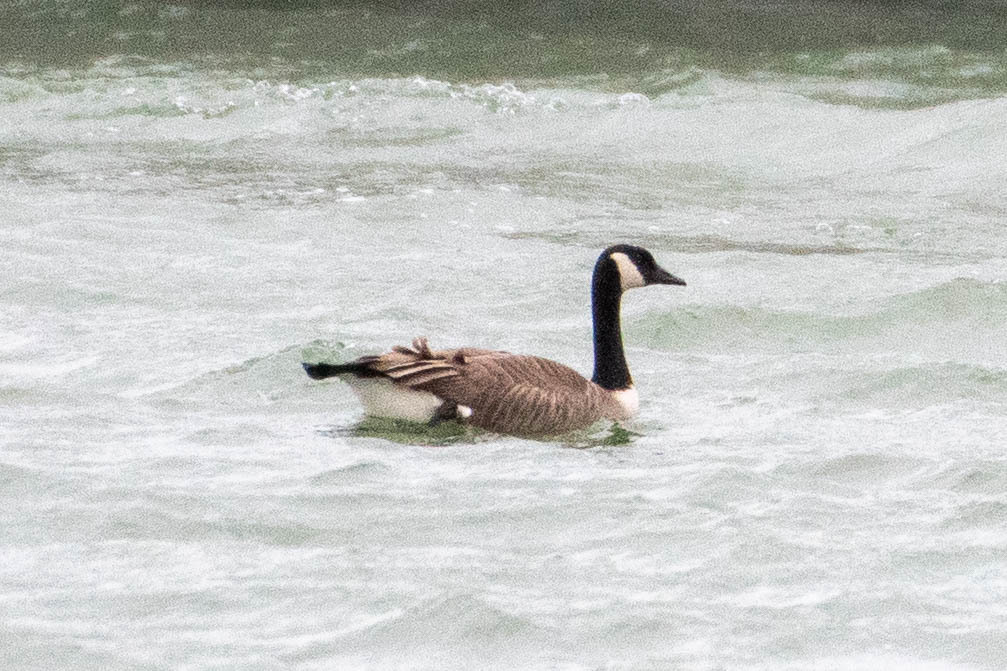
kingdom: Animalia
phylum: Chordata
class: Aves
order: Anseriformes
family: Anatidae
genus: Branta
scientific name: Branta canadensis
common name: Canada goose
